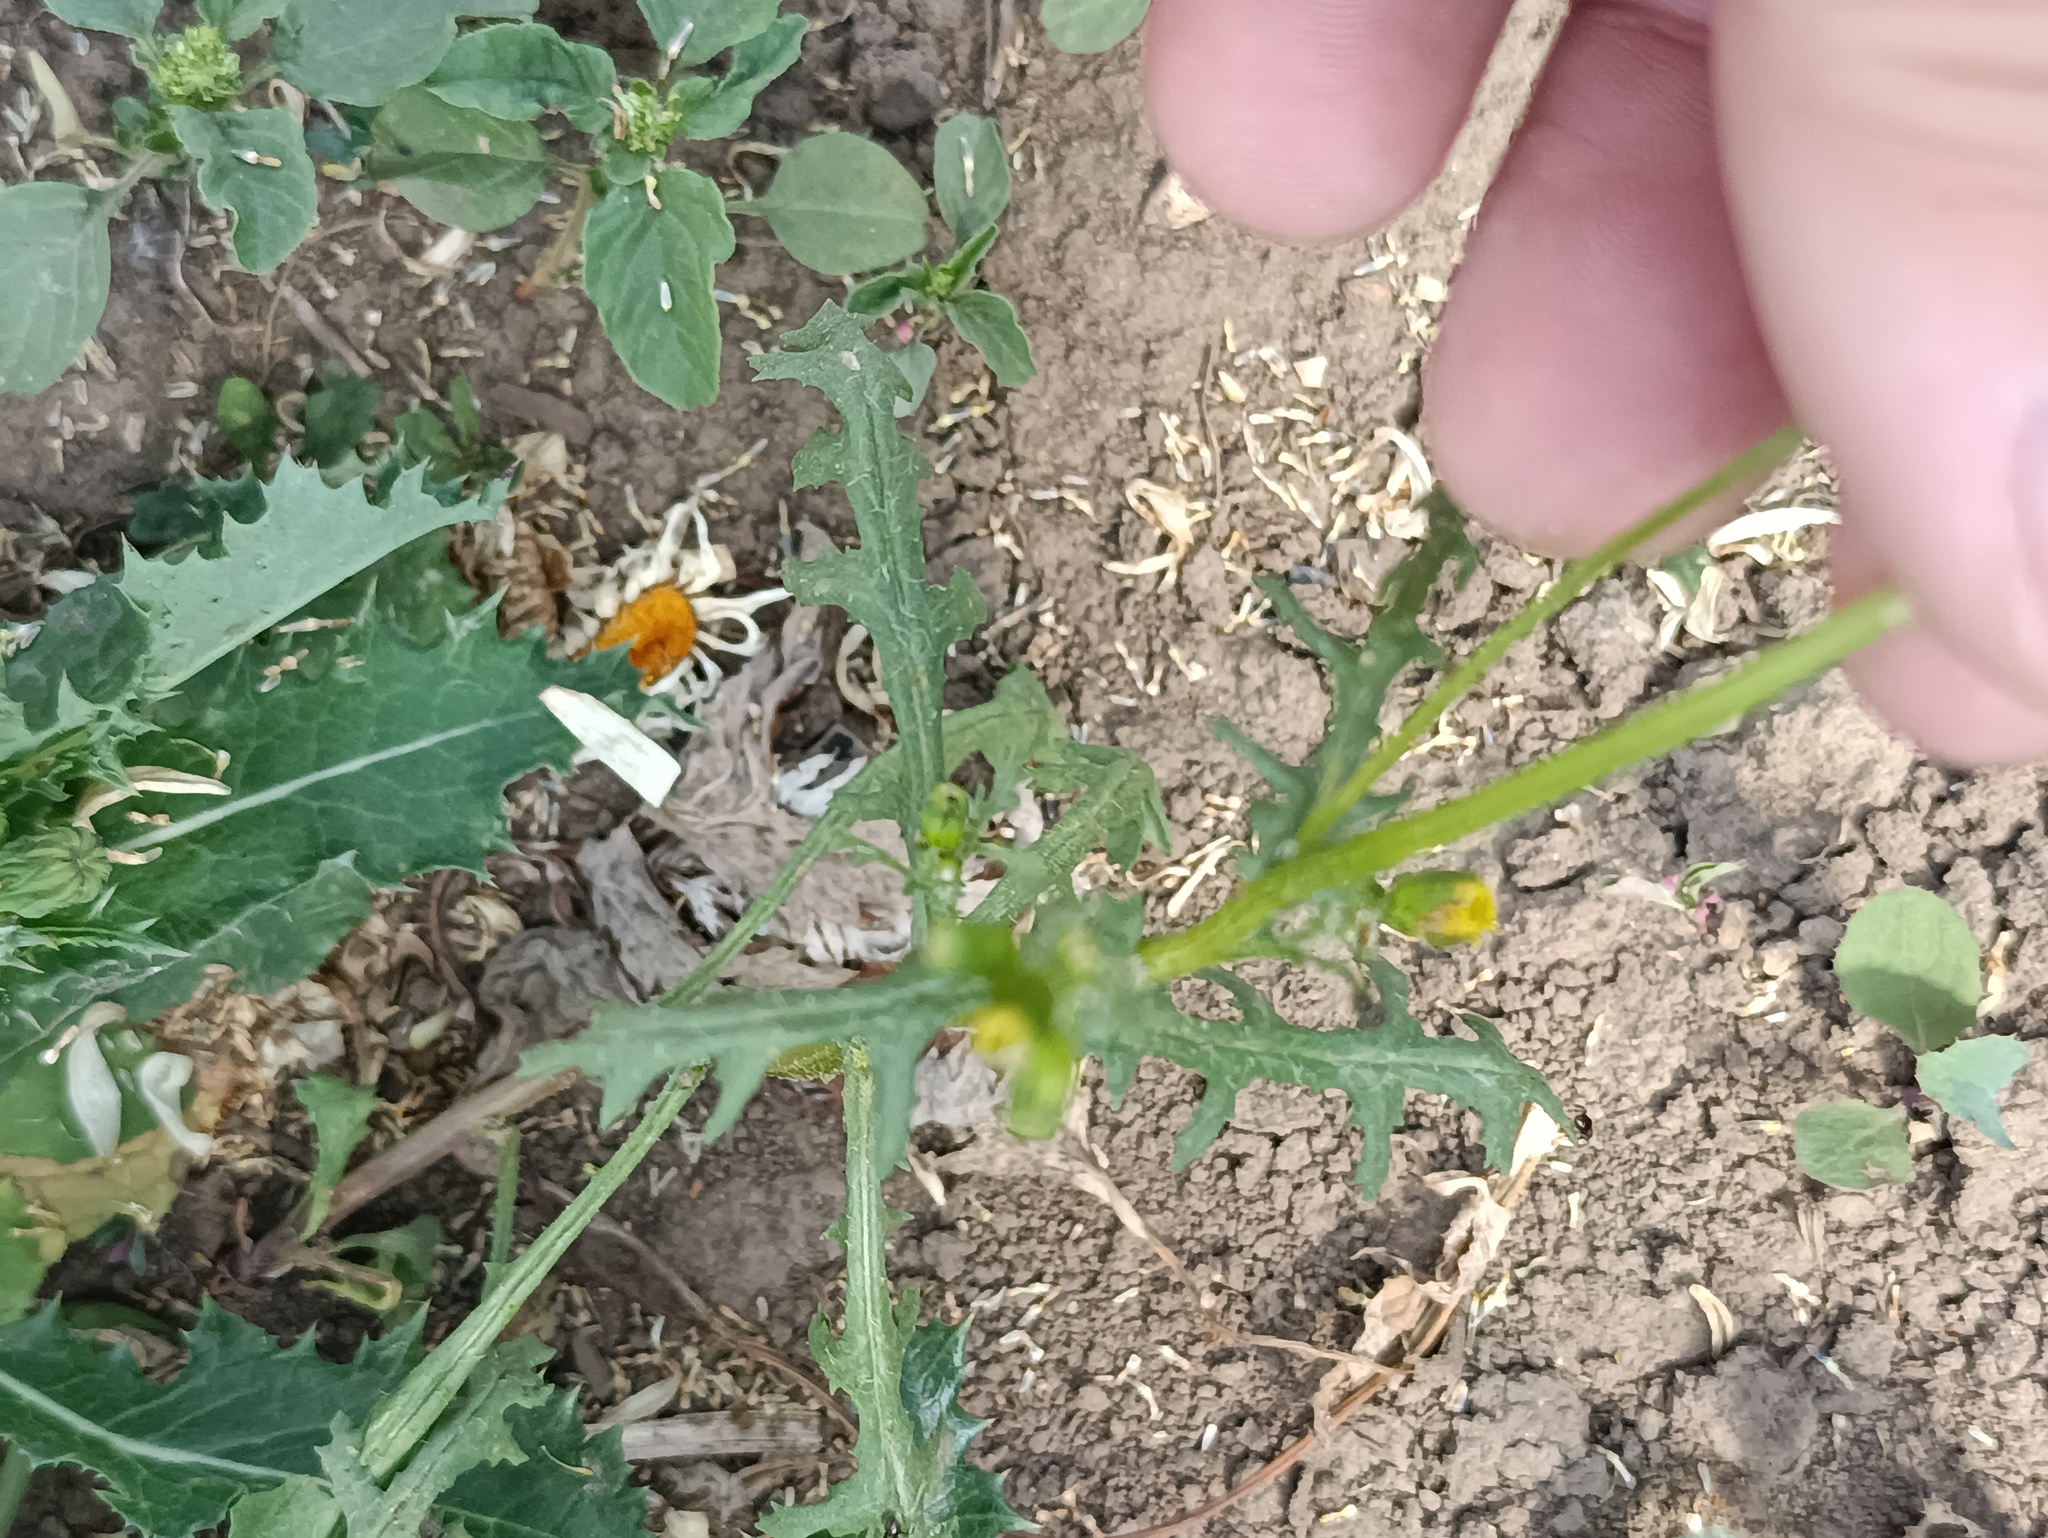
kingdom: Plantae
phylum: Tracheophyta
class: Magnoliopsida
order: Asterales
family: Asteraceae
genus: Senecio
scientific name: Senecio vulgaris
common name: Old-man-in-the-spring
